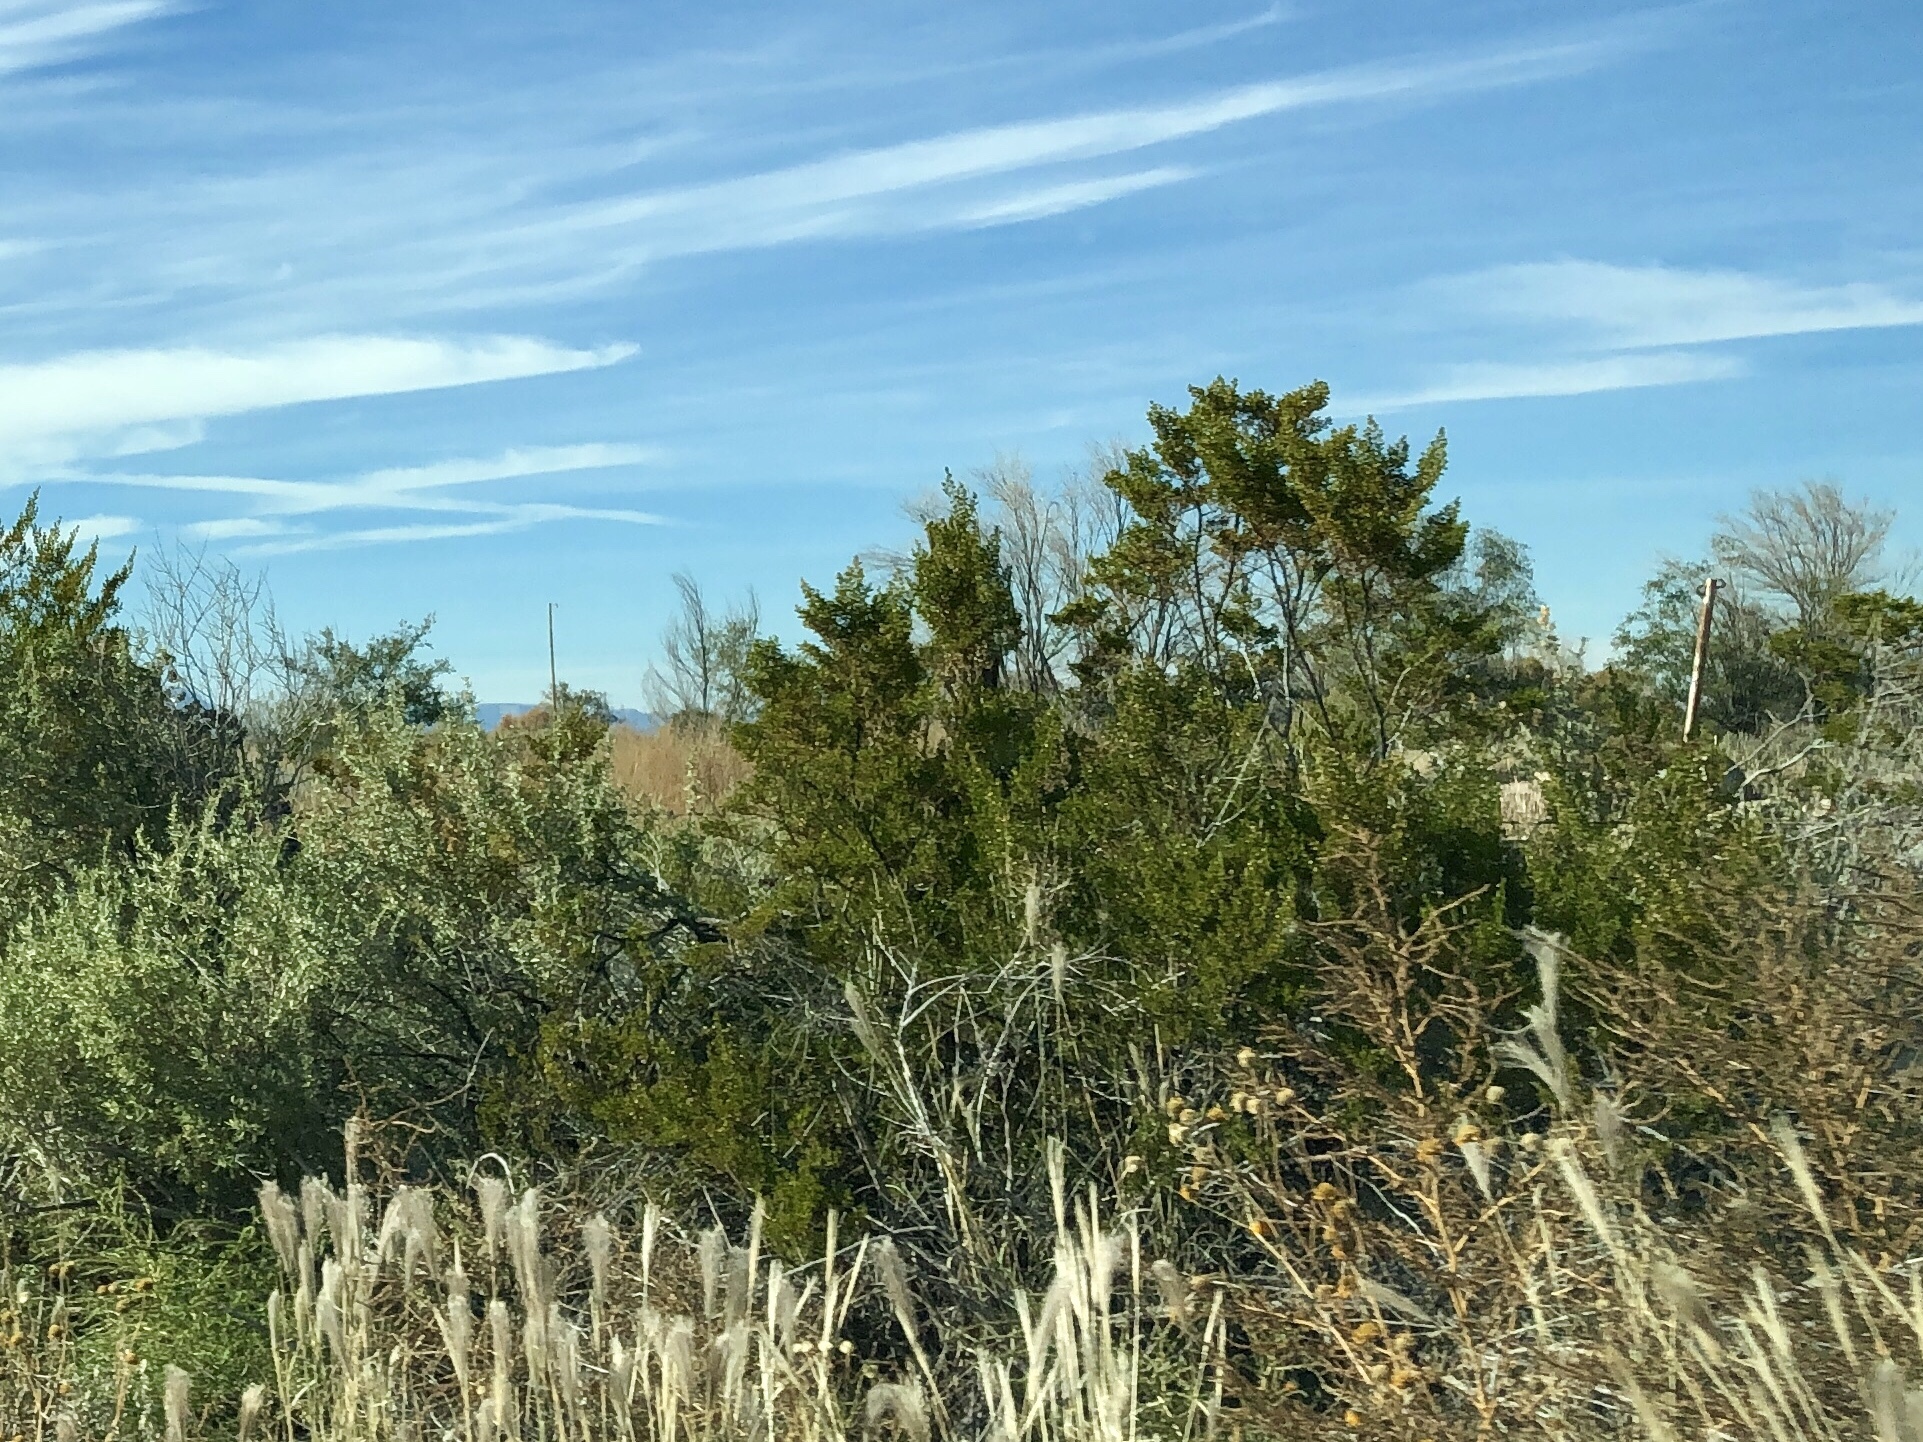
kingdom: Plantae
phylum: Tracheophyta
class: Magnoliopsida
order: Zygophyllales
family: Zygophyllaceae
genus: Larrea
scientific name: Larrea tridentata
